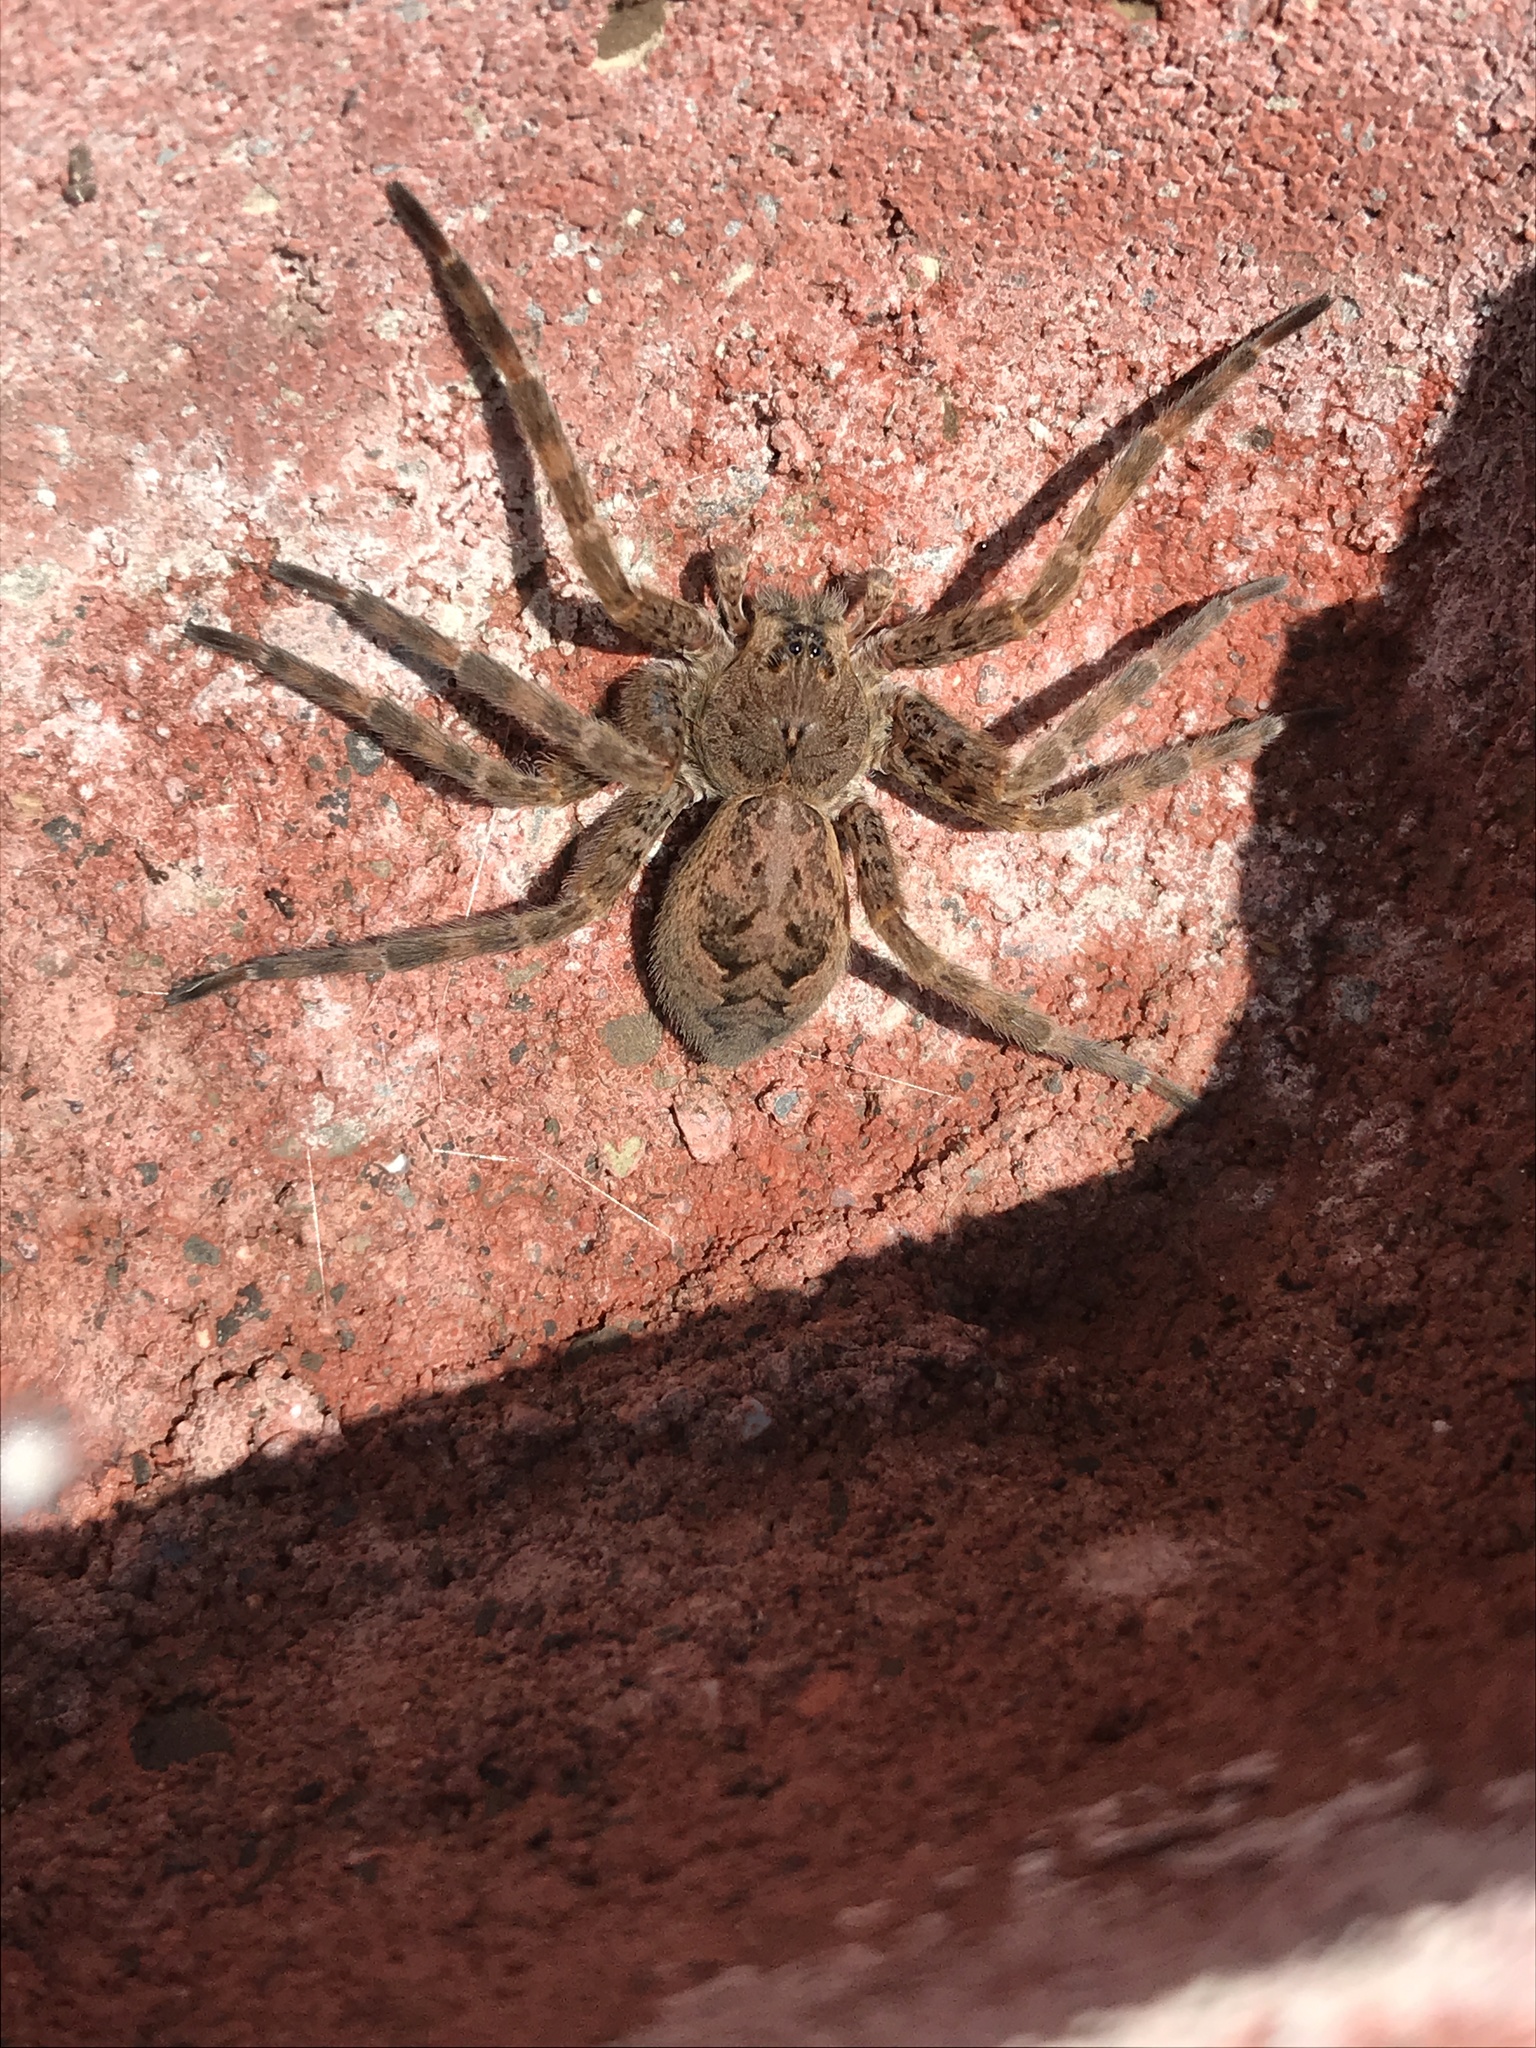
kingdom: Animalia
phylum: Arthropoda
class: Arachnida
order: Araneae
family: Pisauridae
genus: Dolomedes
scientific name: Dolomedes tenebrosus
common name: Dark fishing spider
